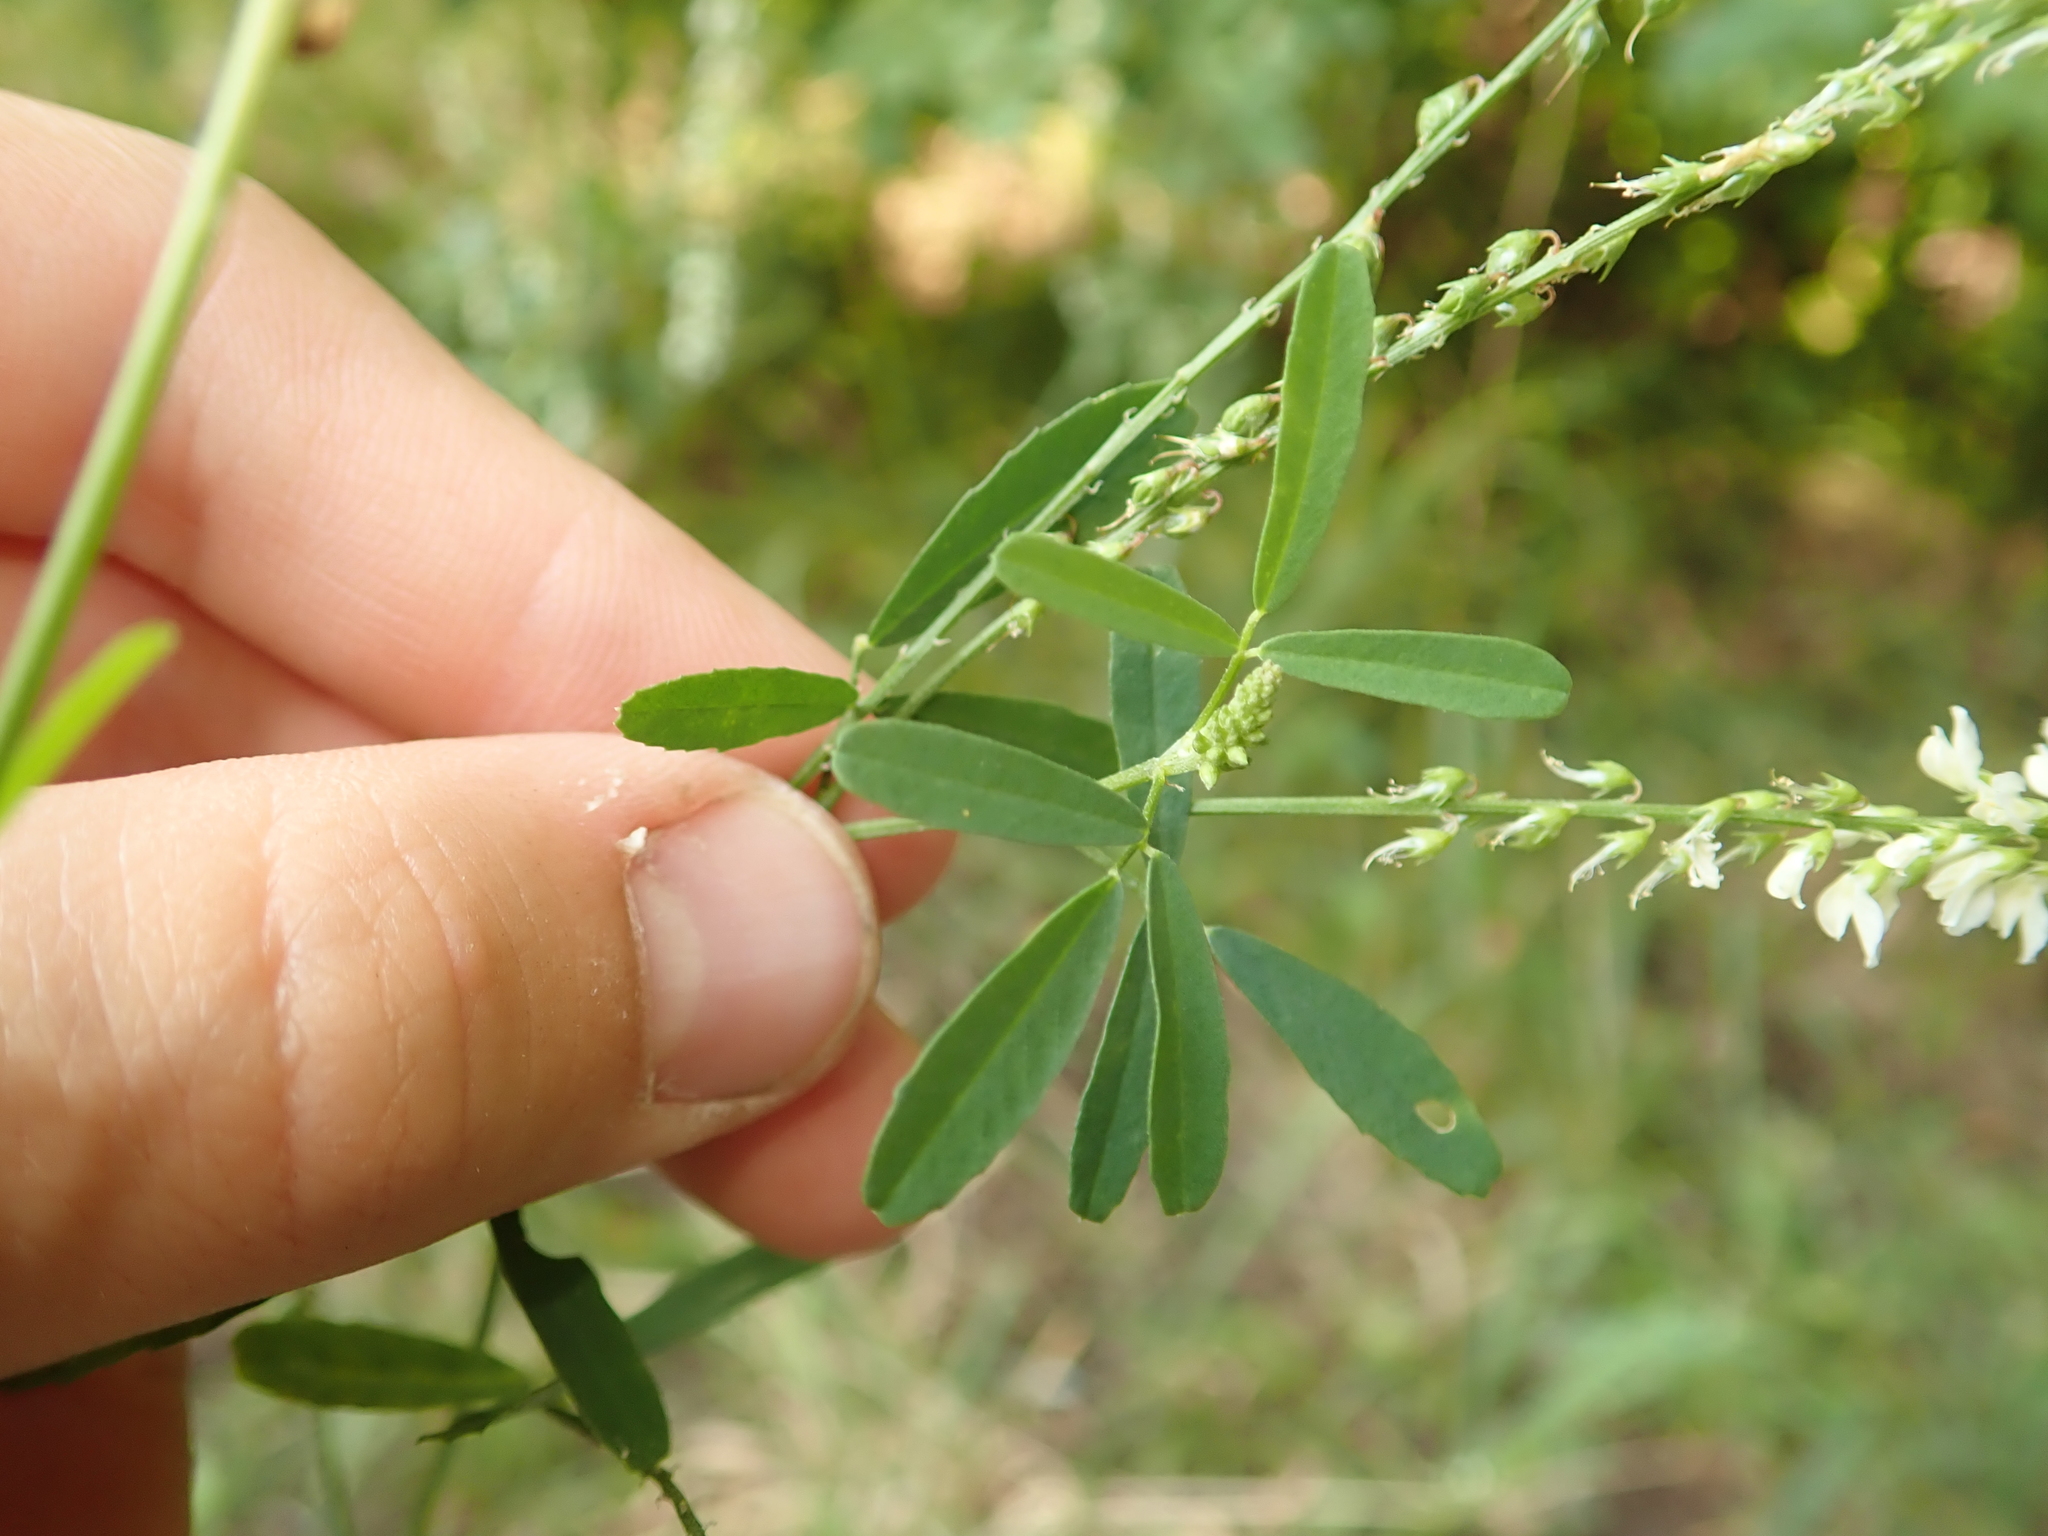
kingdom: Plantae
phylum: Tracheophyta
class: Magnoliopsida
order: Fabales
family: Fabaceae
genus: Melilotus
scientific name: Melilotus albus
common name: White melilot
